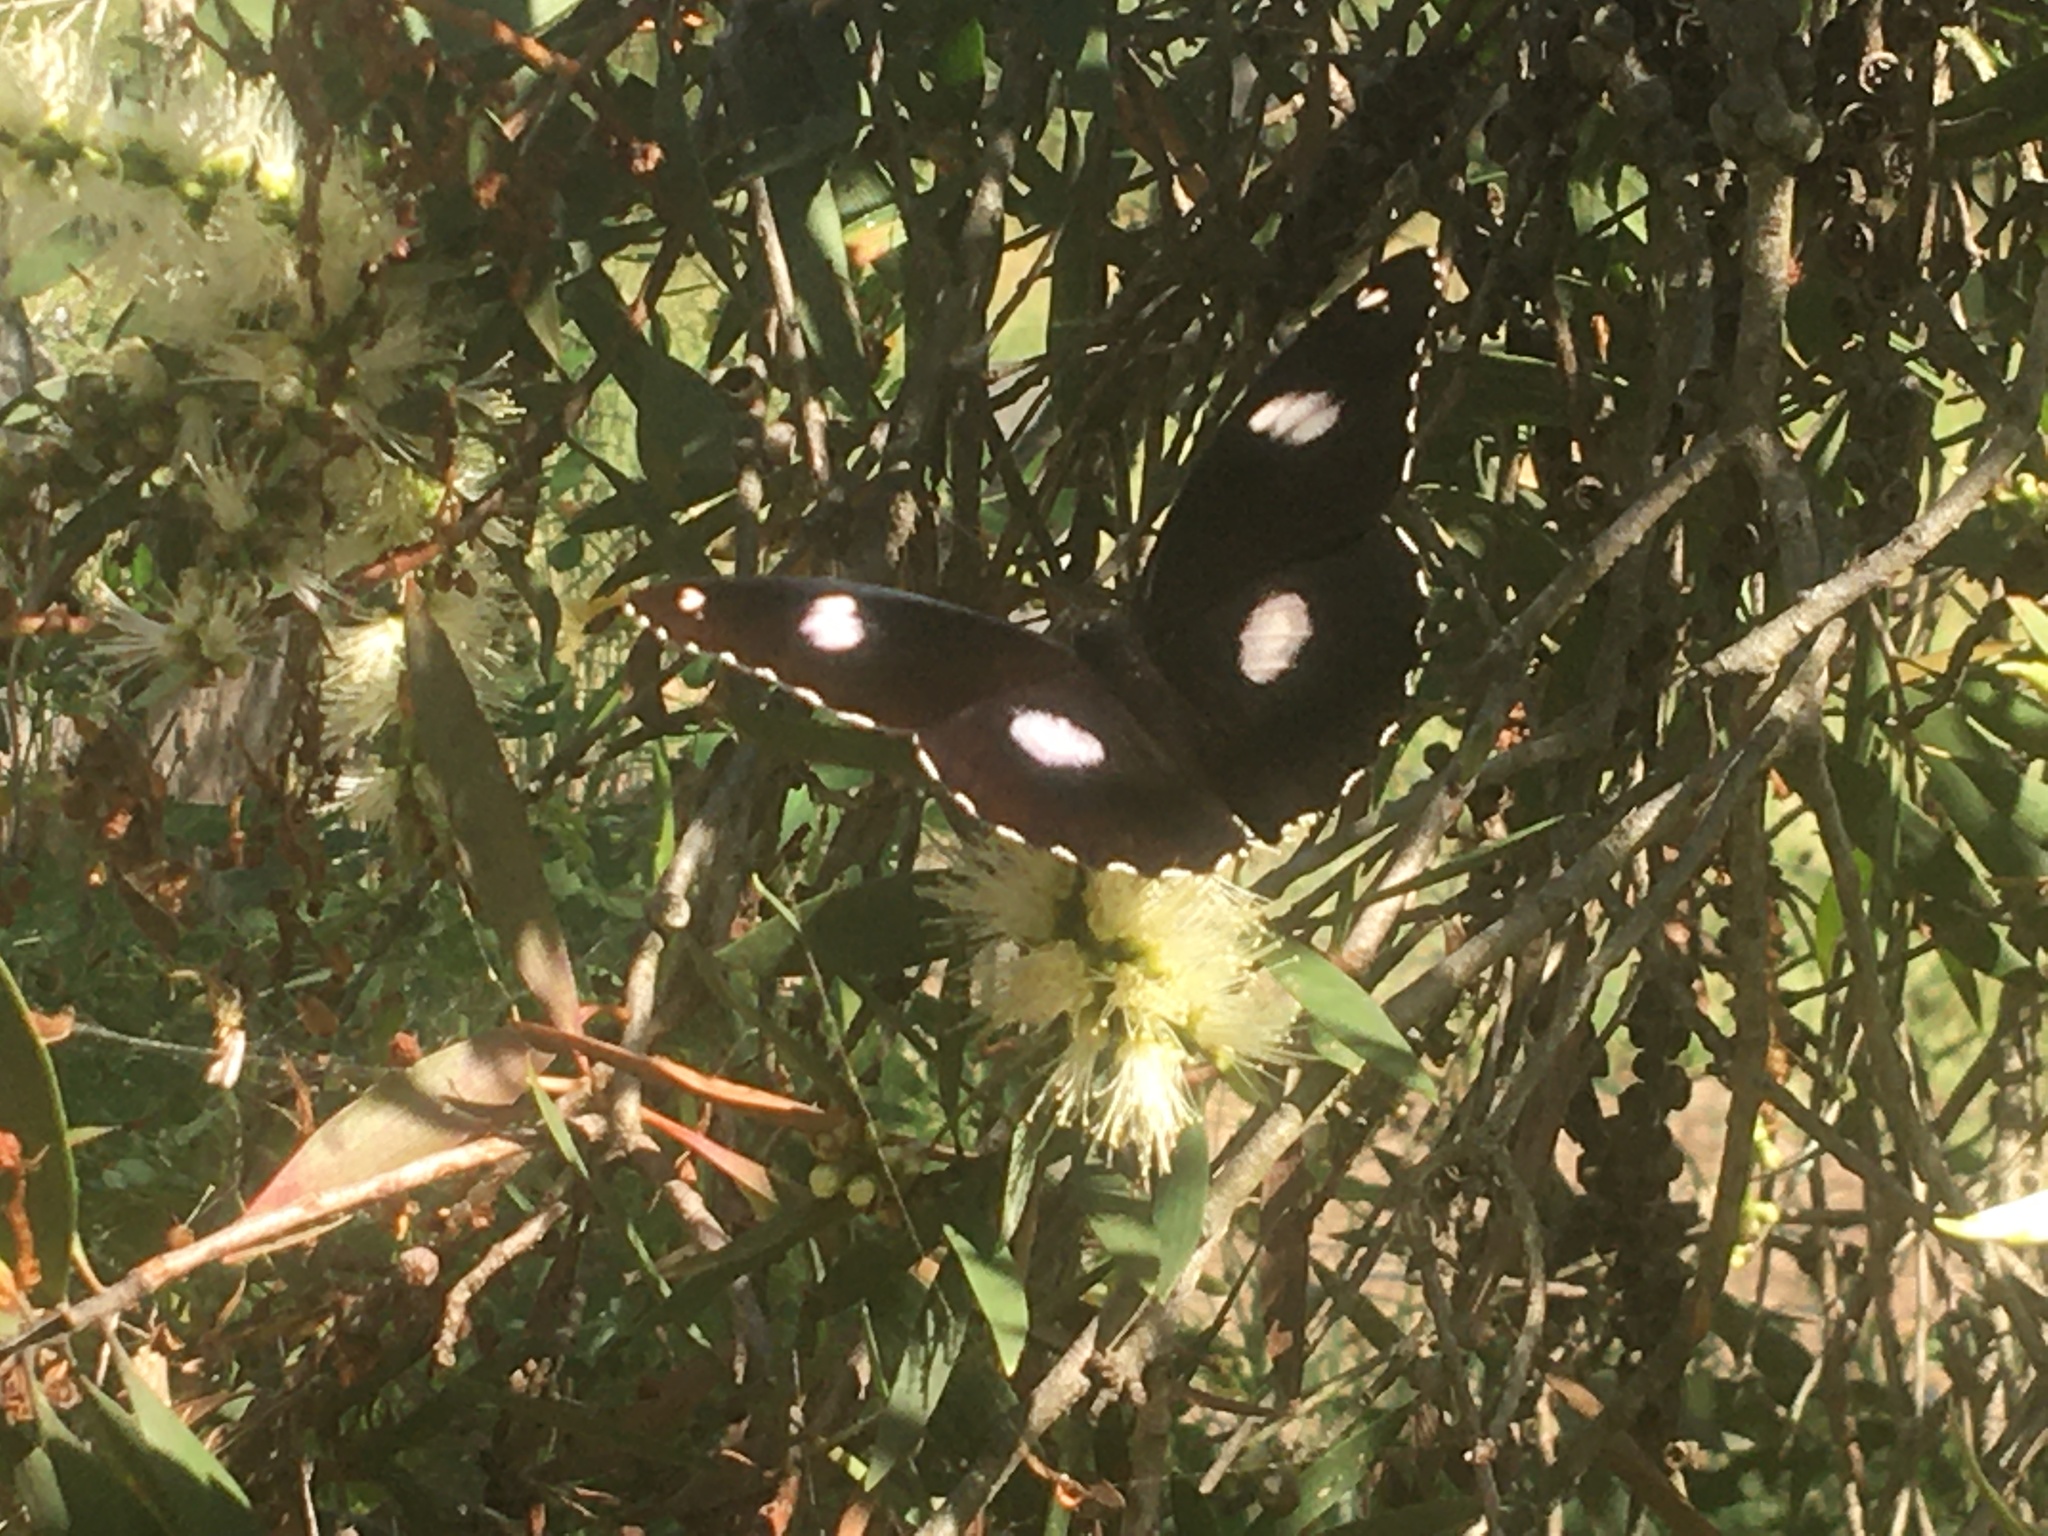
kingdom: Animalia
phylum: Arthropoda
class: Insecta
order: Lepidoptera
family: Nymphalidae
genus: Hypolimnas
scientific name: Hypolimnas bolina
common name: Great eggfly
